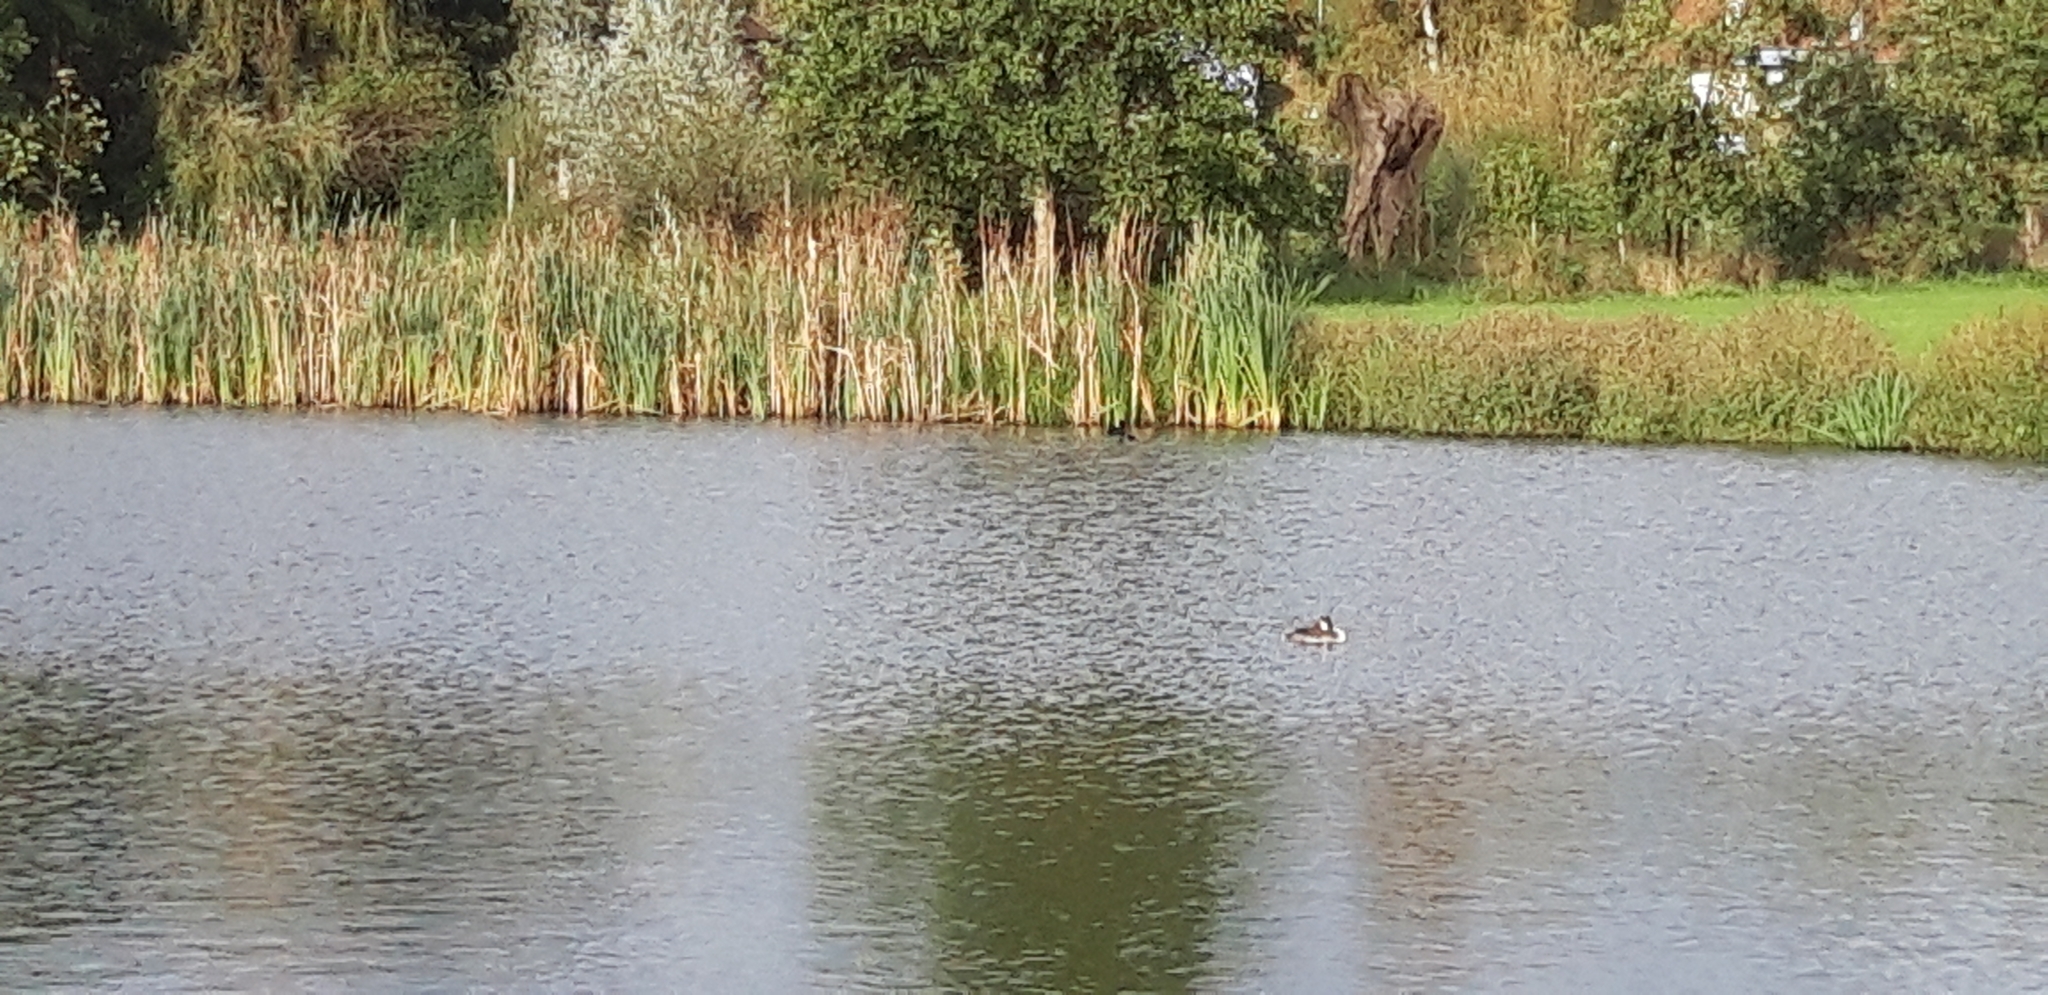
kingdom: Animalia
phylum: Chordata
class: Aves
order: Podicipediformes
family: Podicipedidae
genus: Podiceps
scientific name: Podiceps cristatus
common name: Great crested grebe
